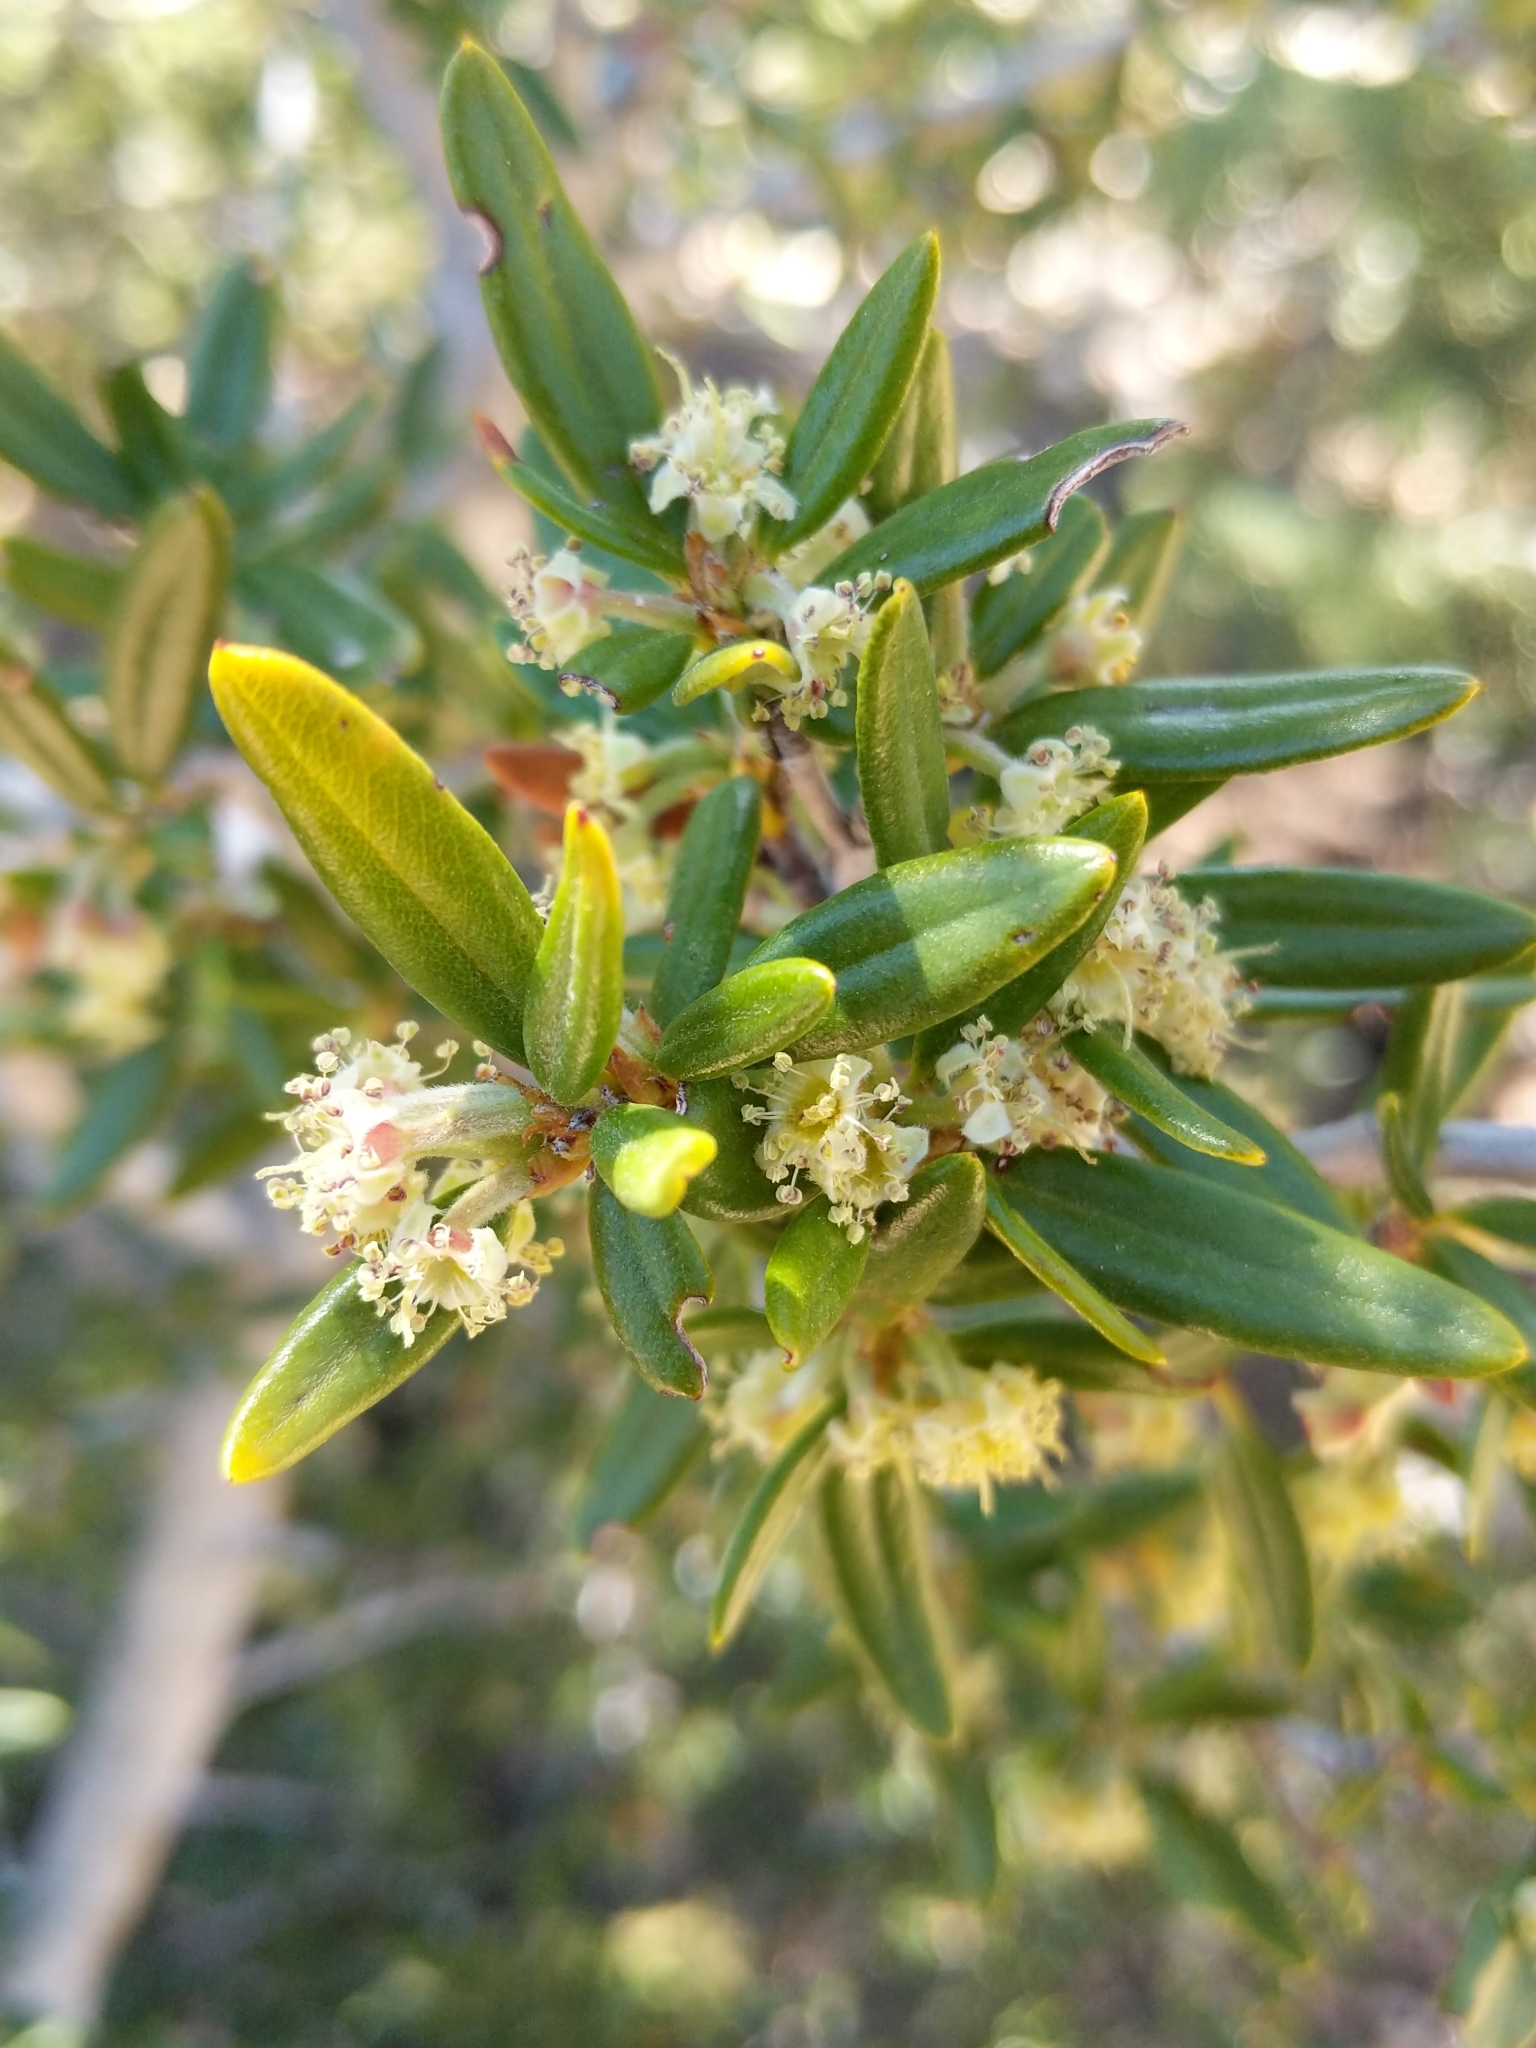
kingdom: Plantae
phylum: Tracheophyta
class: Magnoliopsida
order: Rosales
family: Rosaceae
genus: Cercocarpus
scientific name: Cercocarpus ledifolius
